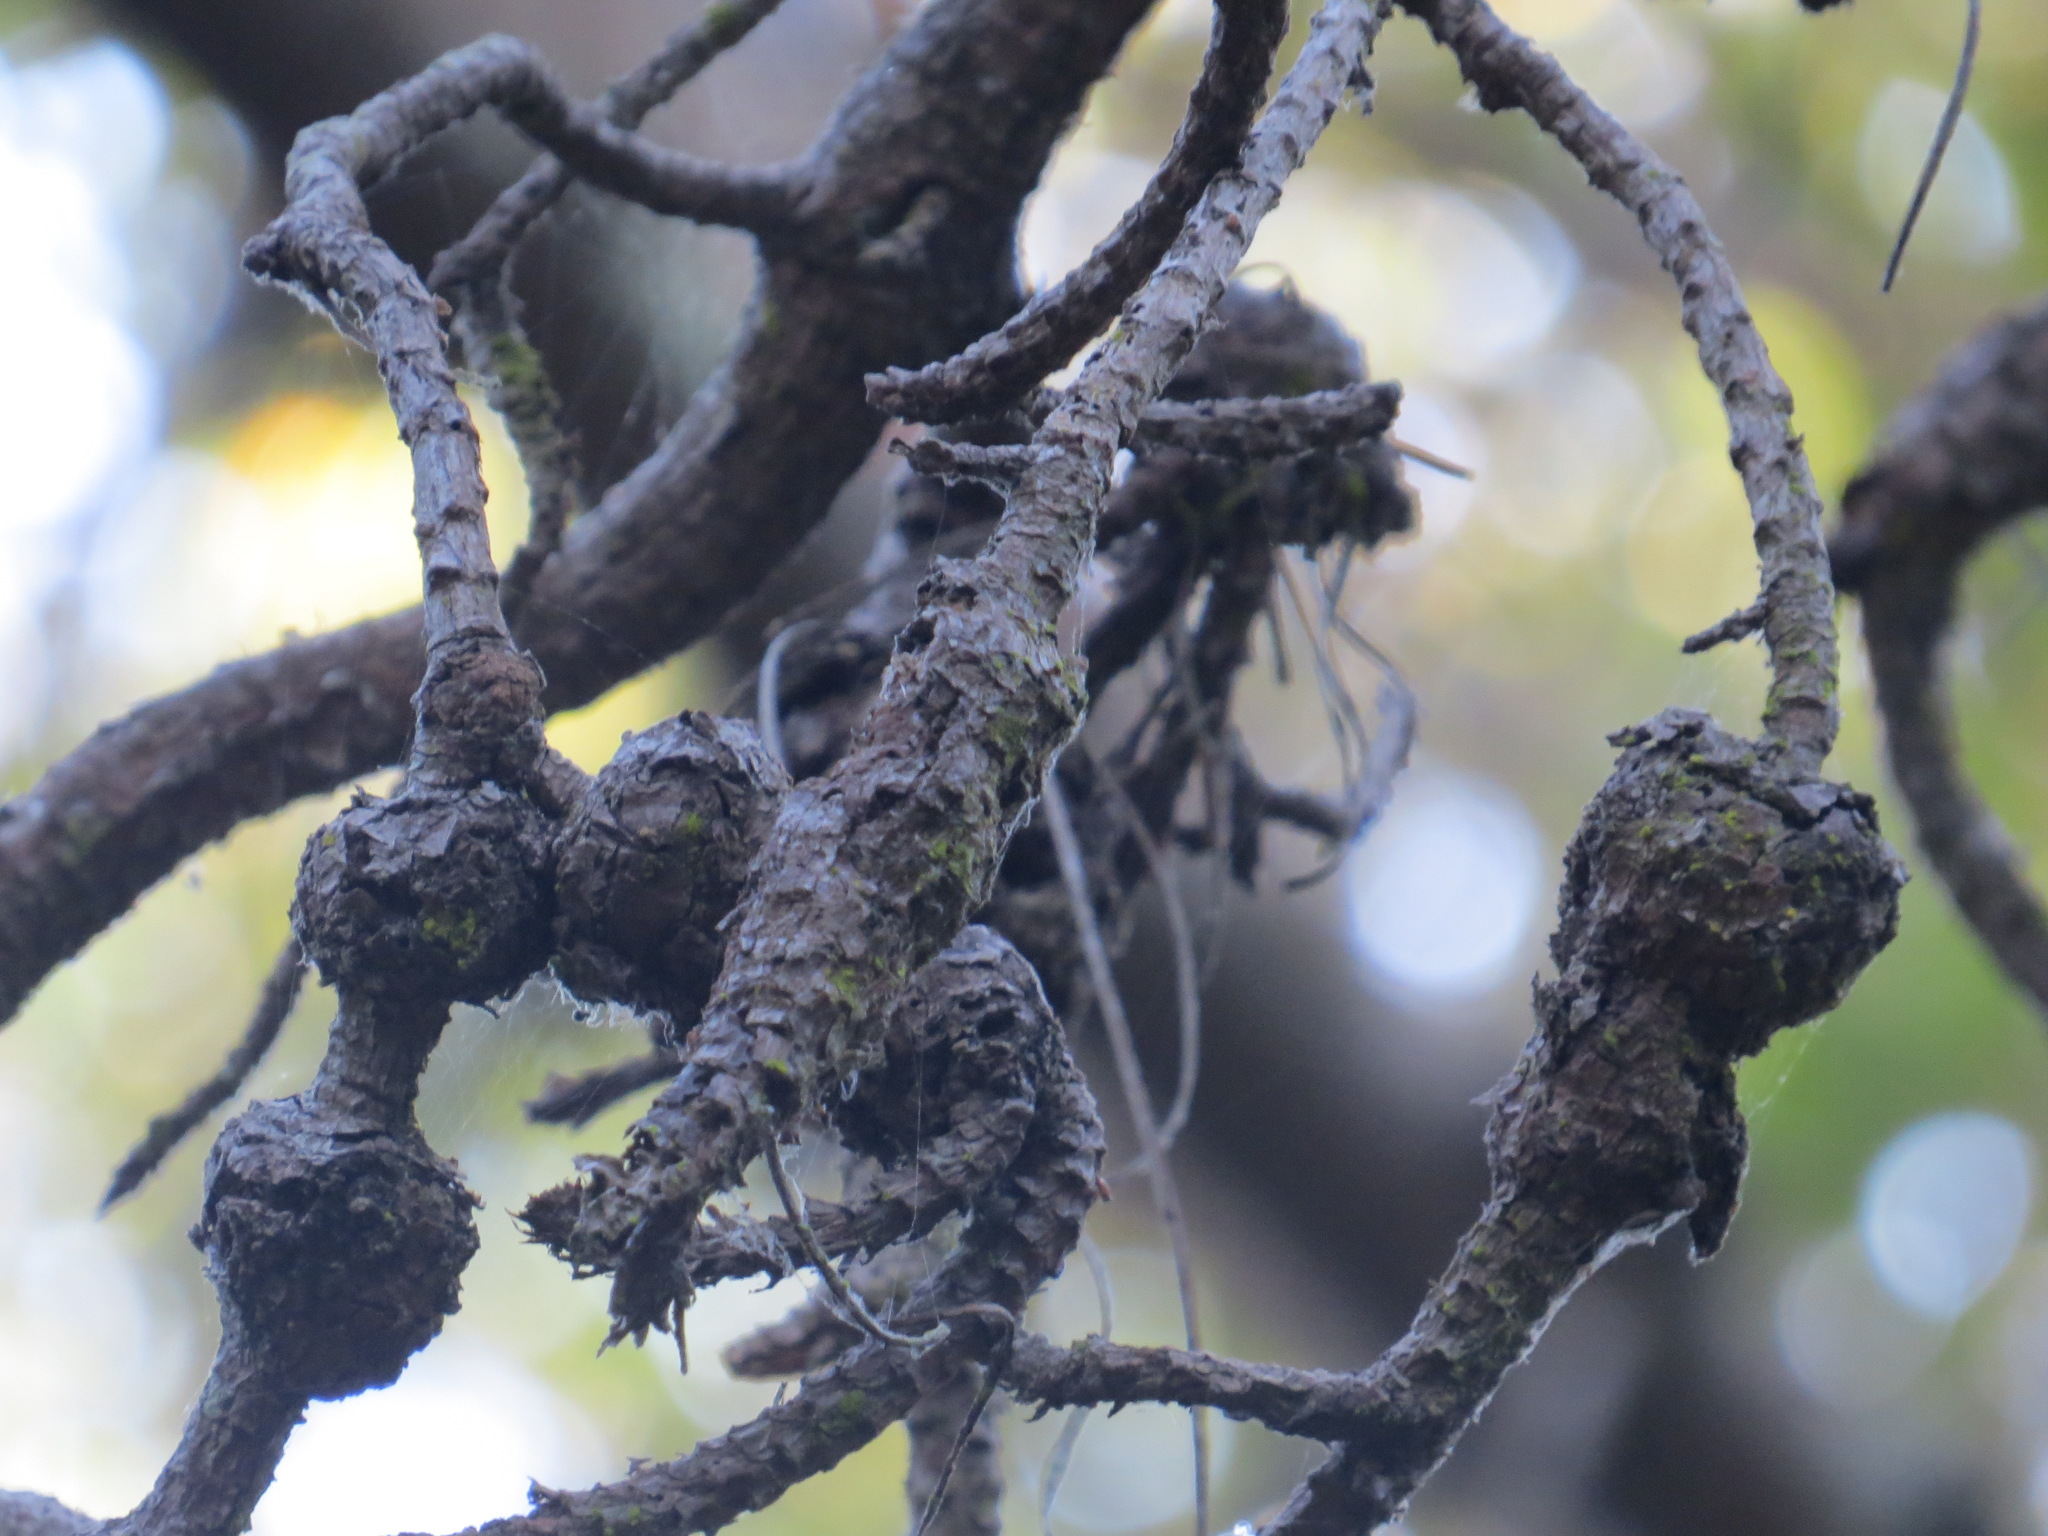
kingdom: Fungi
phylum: Basidiomycota
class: Pucciniomycetes
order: Pucciniales
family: Cronartiaceae
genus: Cronartium
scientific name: Cronartium harknessii
